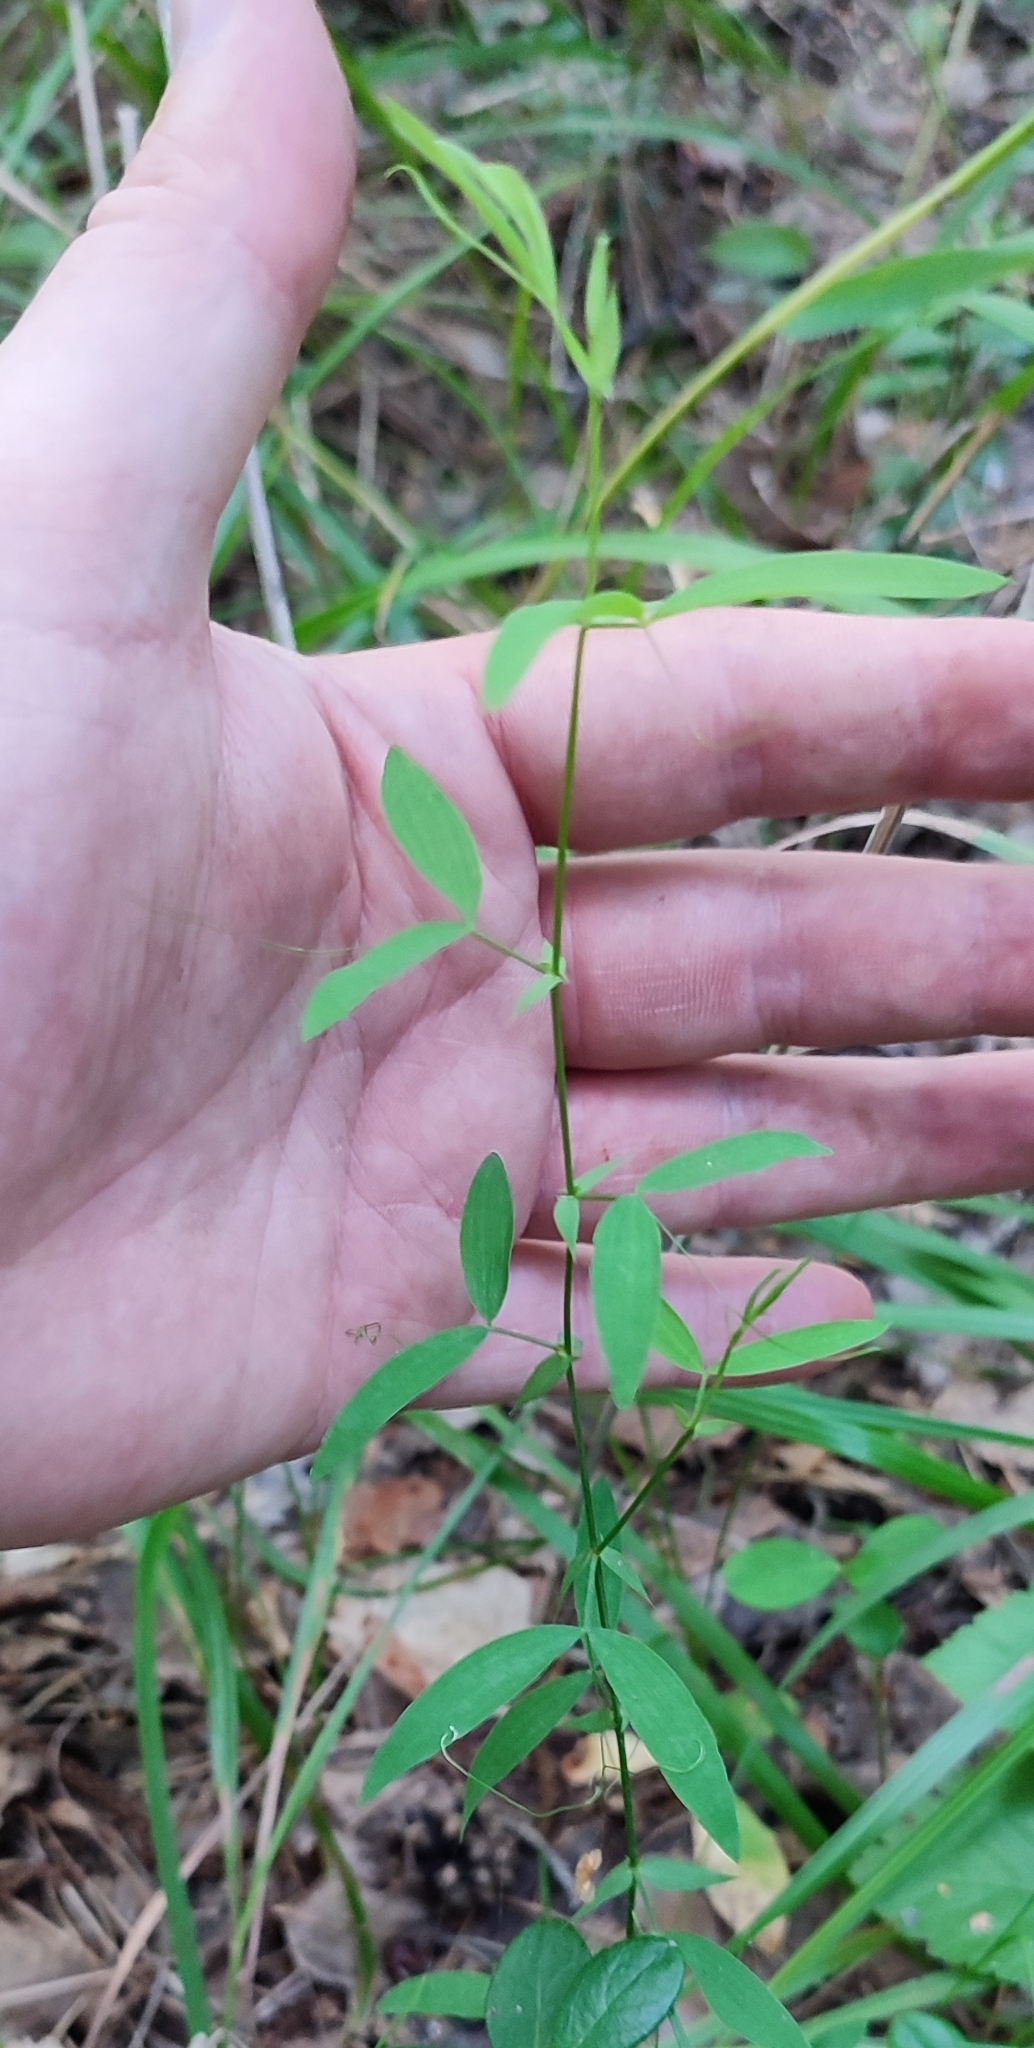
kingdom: Plantae
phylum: Tracheophyta
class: Magnoliopsida
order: Fabales
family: Fabaceae
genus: Lathyrus
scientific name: Lathyrus pratensis
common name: Meadow vetchling
